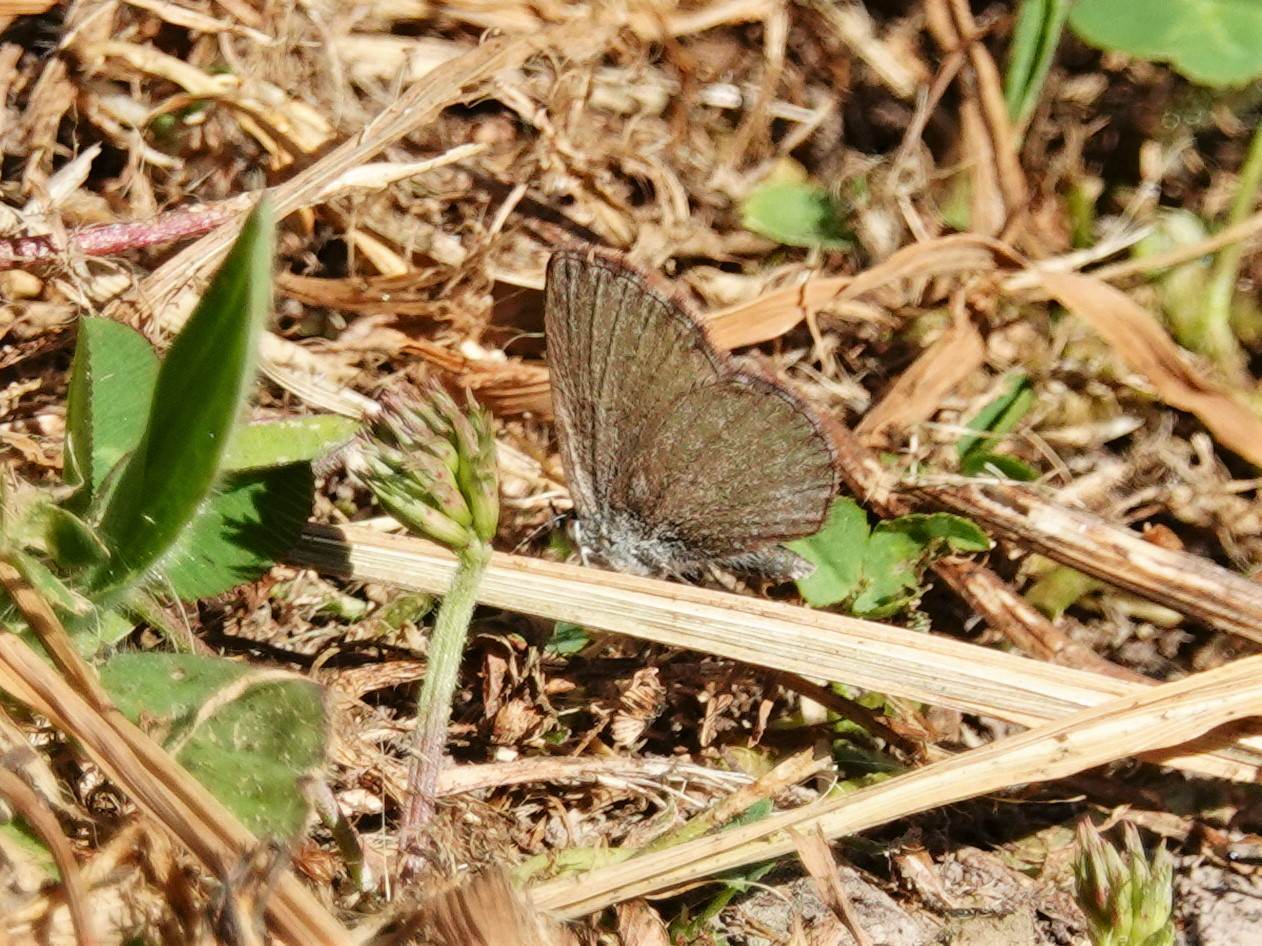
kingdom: Animalia
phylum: Arthropoda
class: Insecta
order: Lepidoptera
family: Lycaenidae
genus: Zizina
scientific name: Zizina labradus
